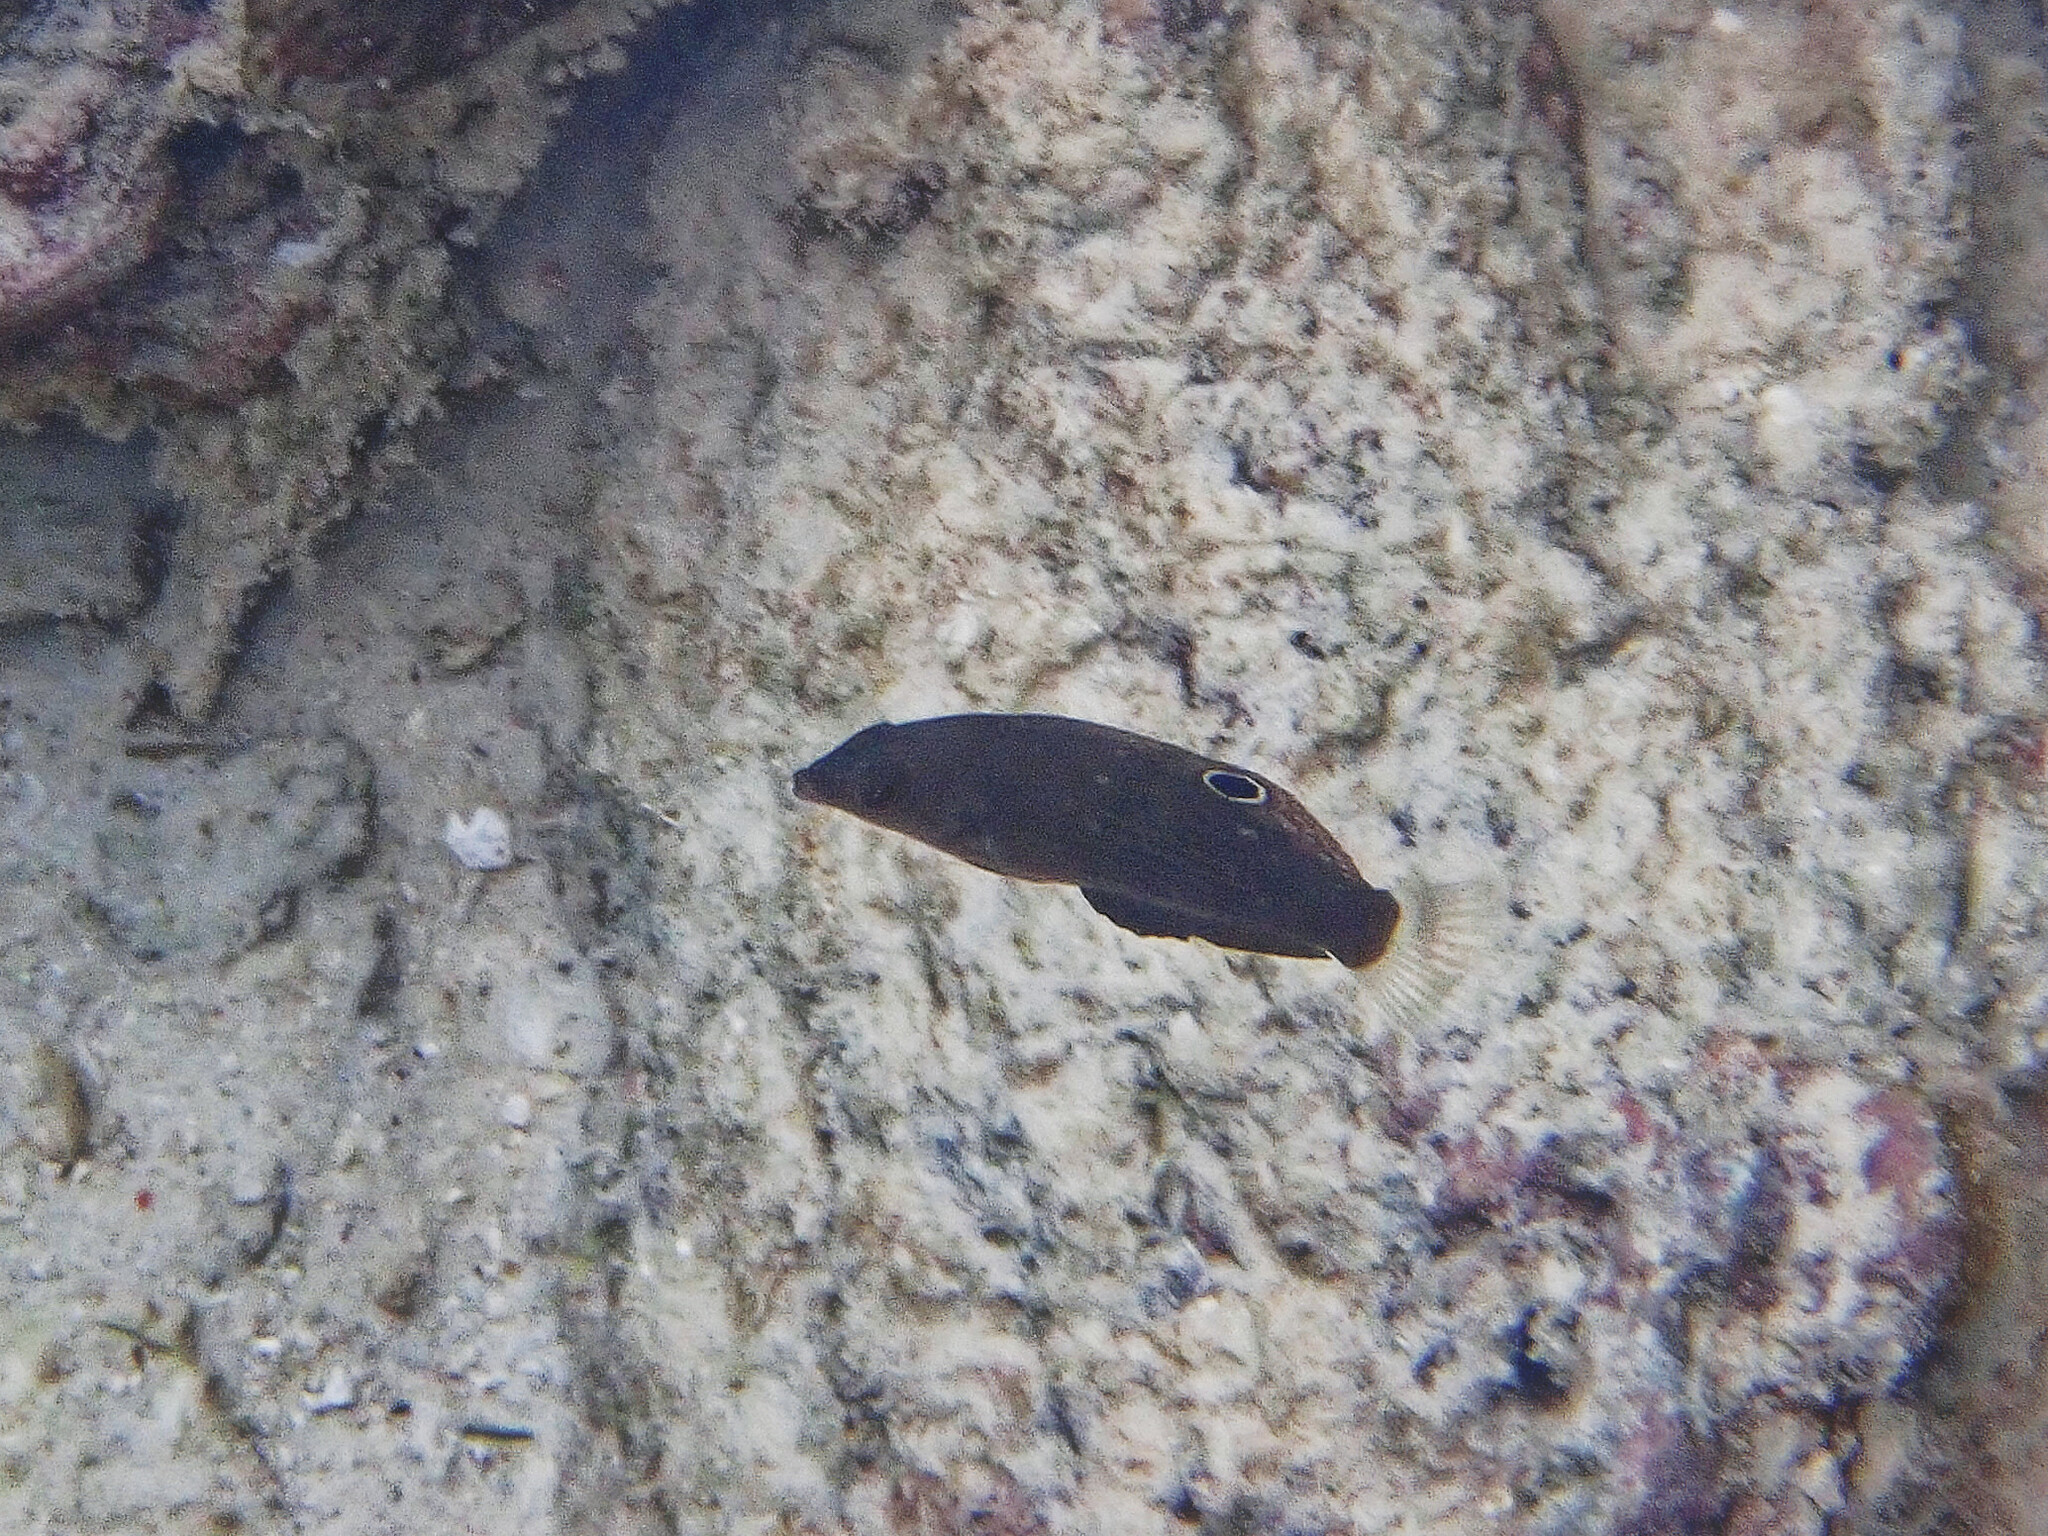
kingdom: Animalia
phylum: Chordata
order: Perciformes
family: Labridae
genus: Halichoeres
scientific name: Halichoeres
